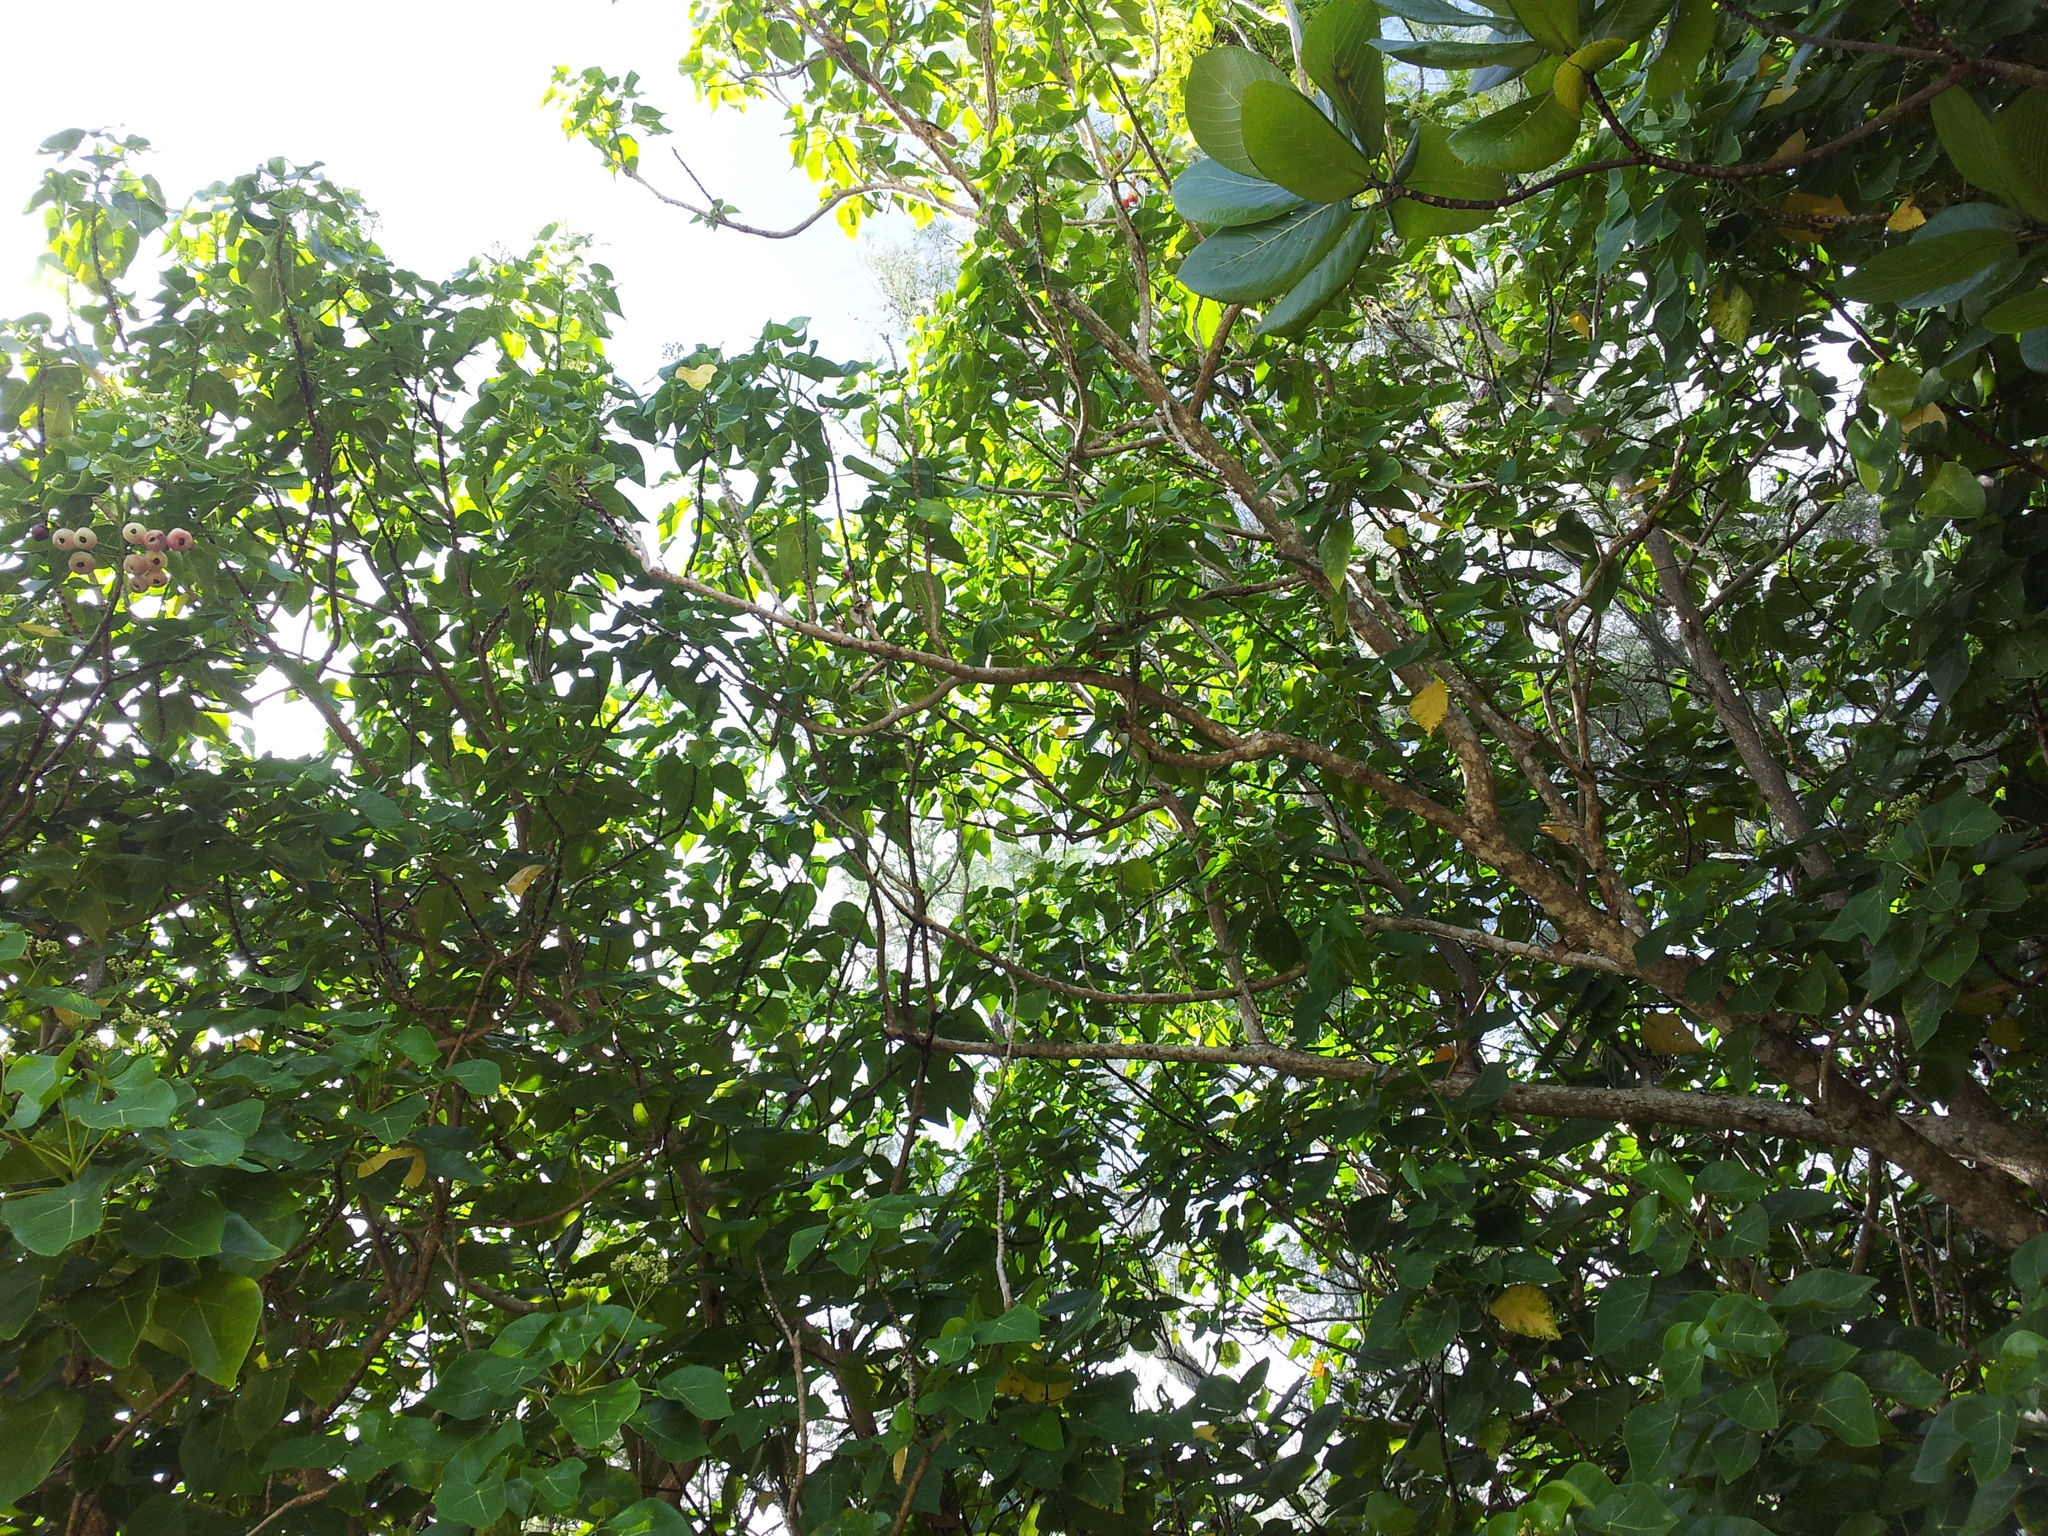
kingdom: Plantae
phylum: Tracheophyta
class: Magnoliopsida
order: Gentianales
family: Rubiaceae
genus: Guettarda
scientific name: Guettarda speciosa
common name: Sea randa
